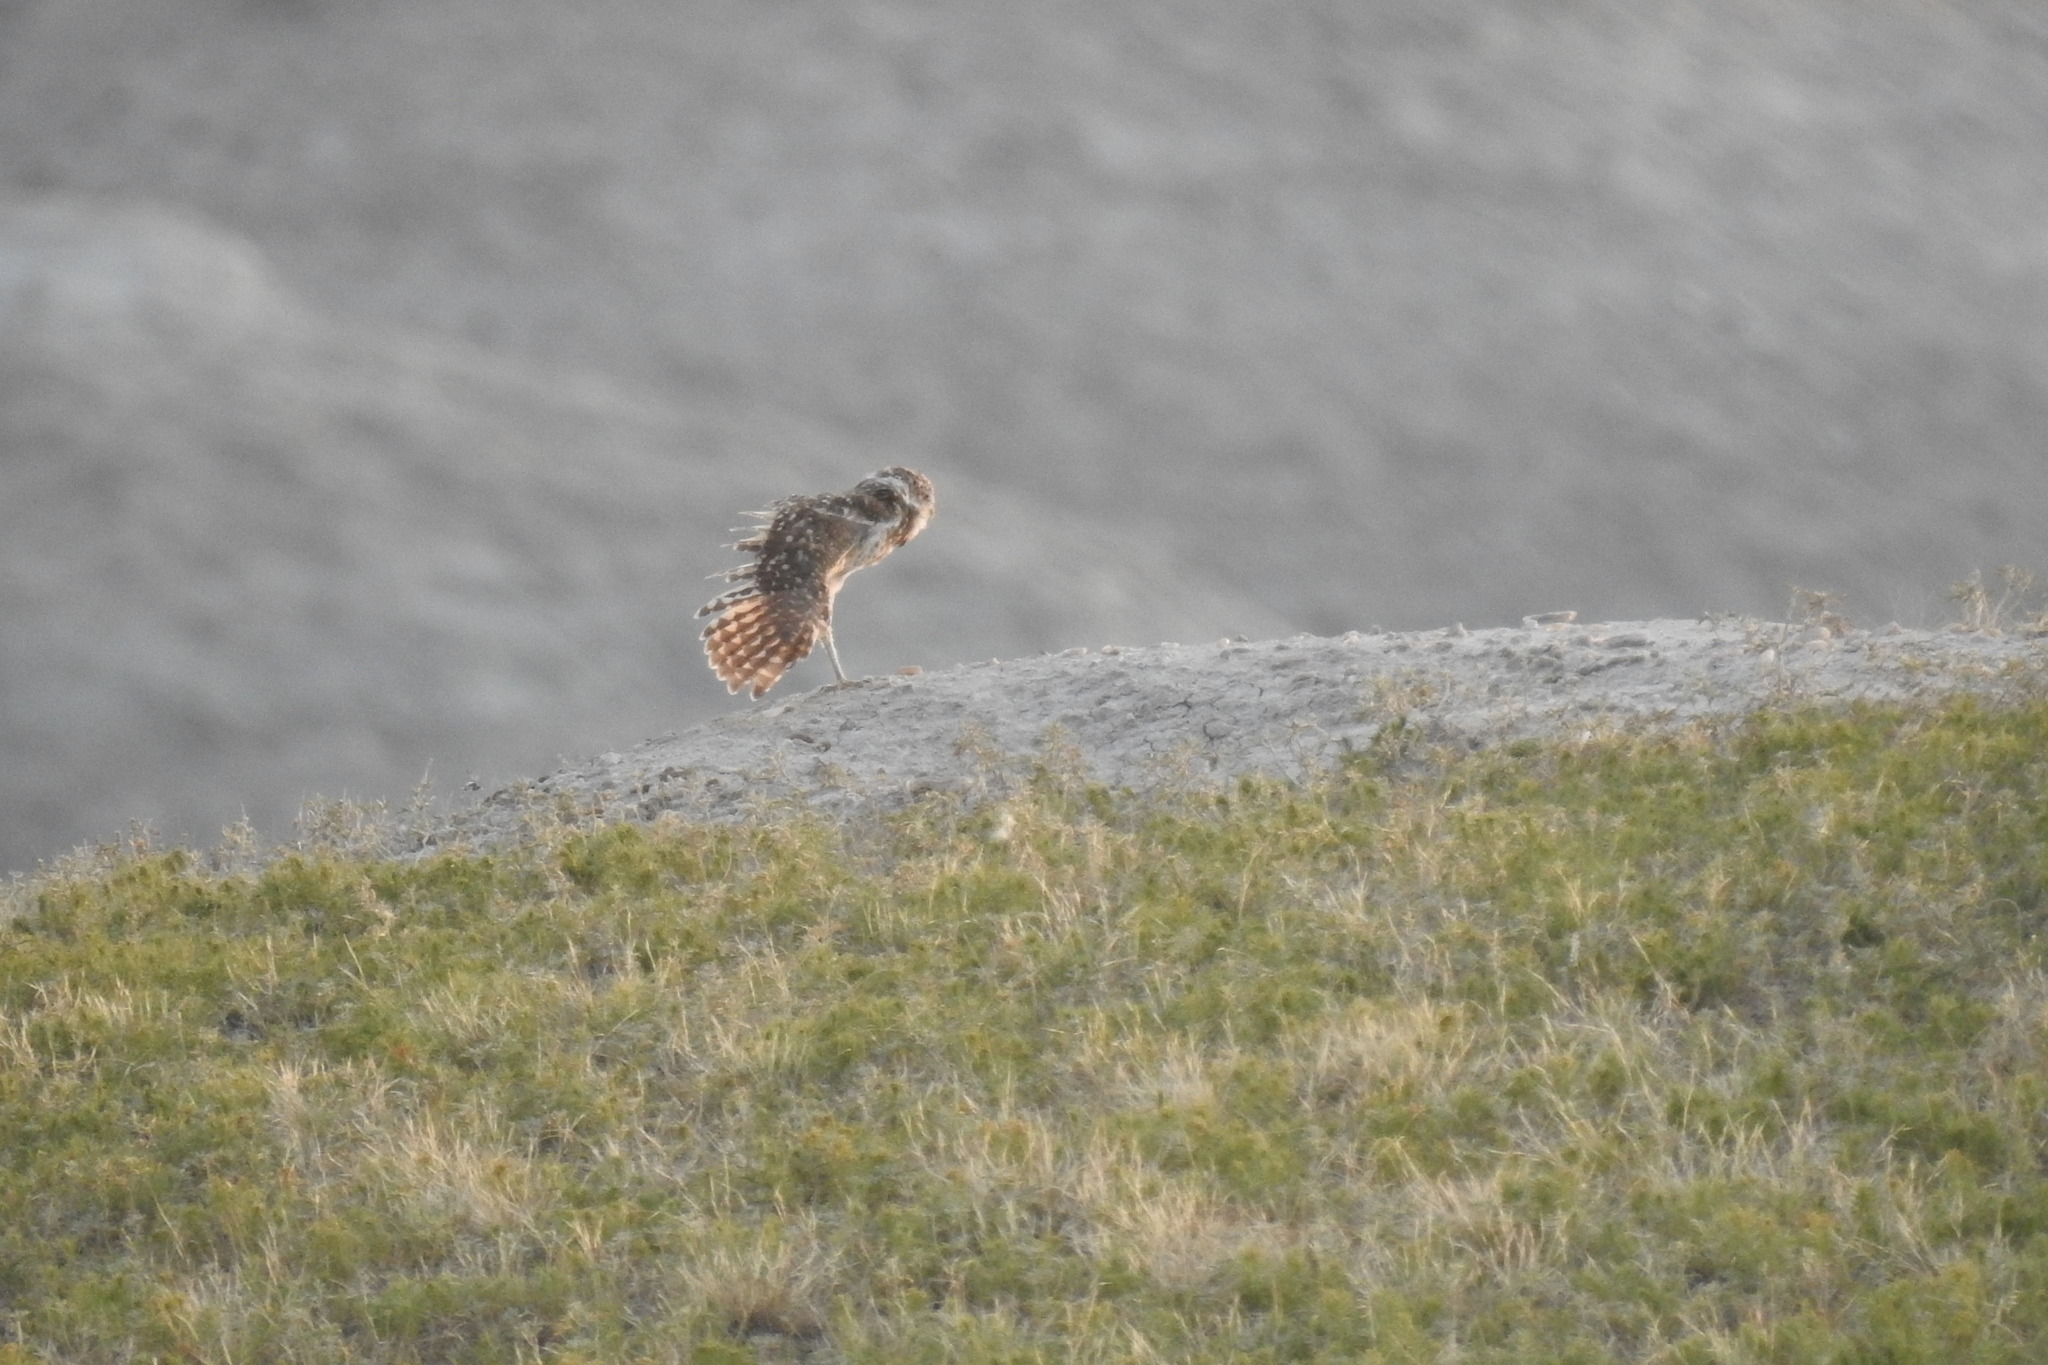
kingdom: Animalia
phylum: Chordata
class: Aves
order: Strigiformes
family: Strigidae
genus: Athene
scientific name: Athene cunicularia
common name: Burrowing owl
